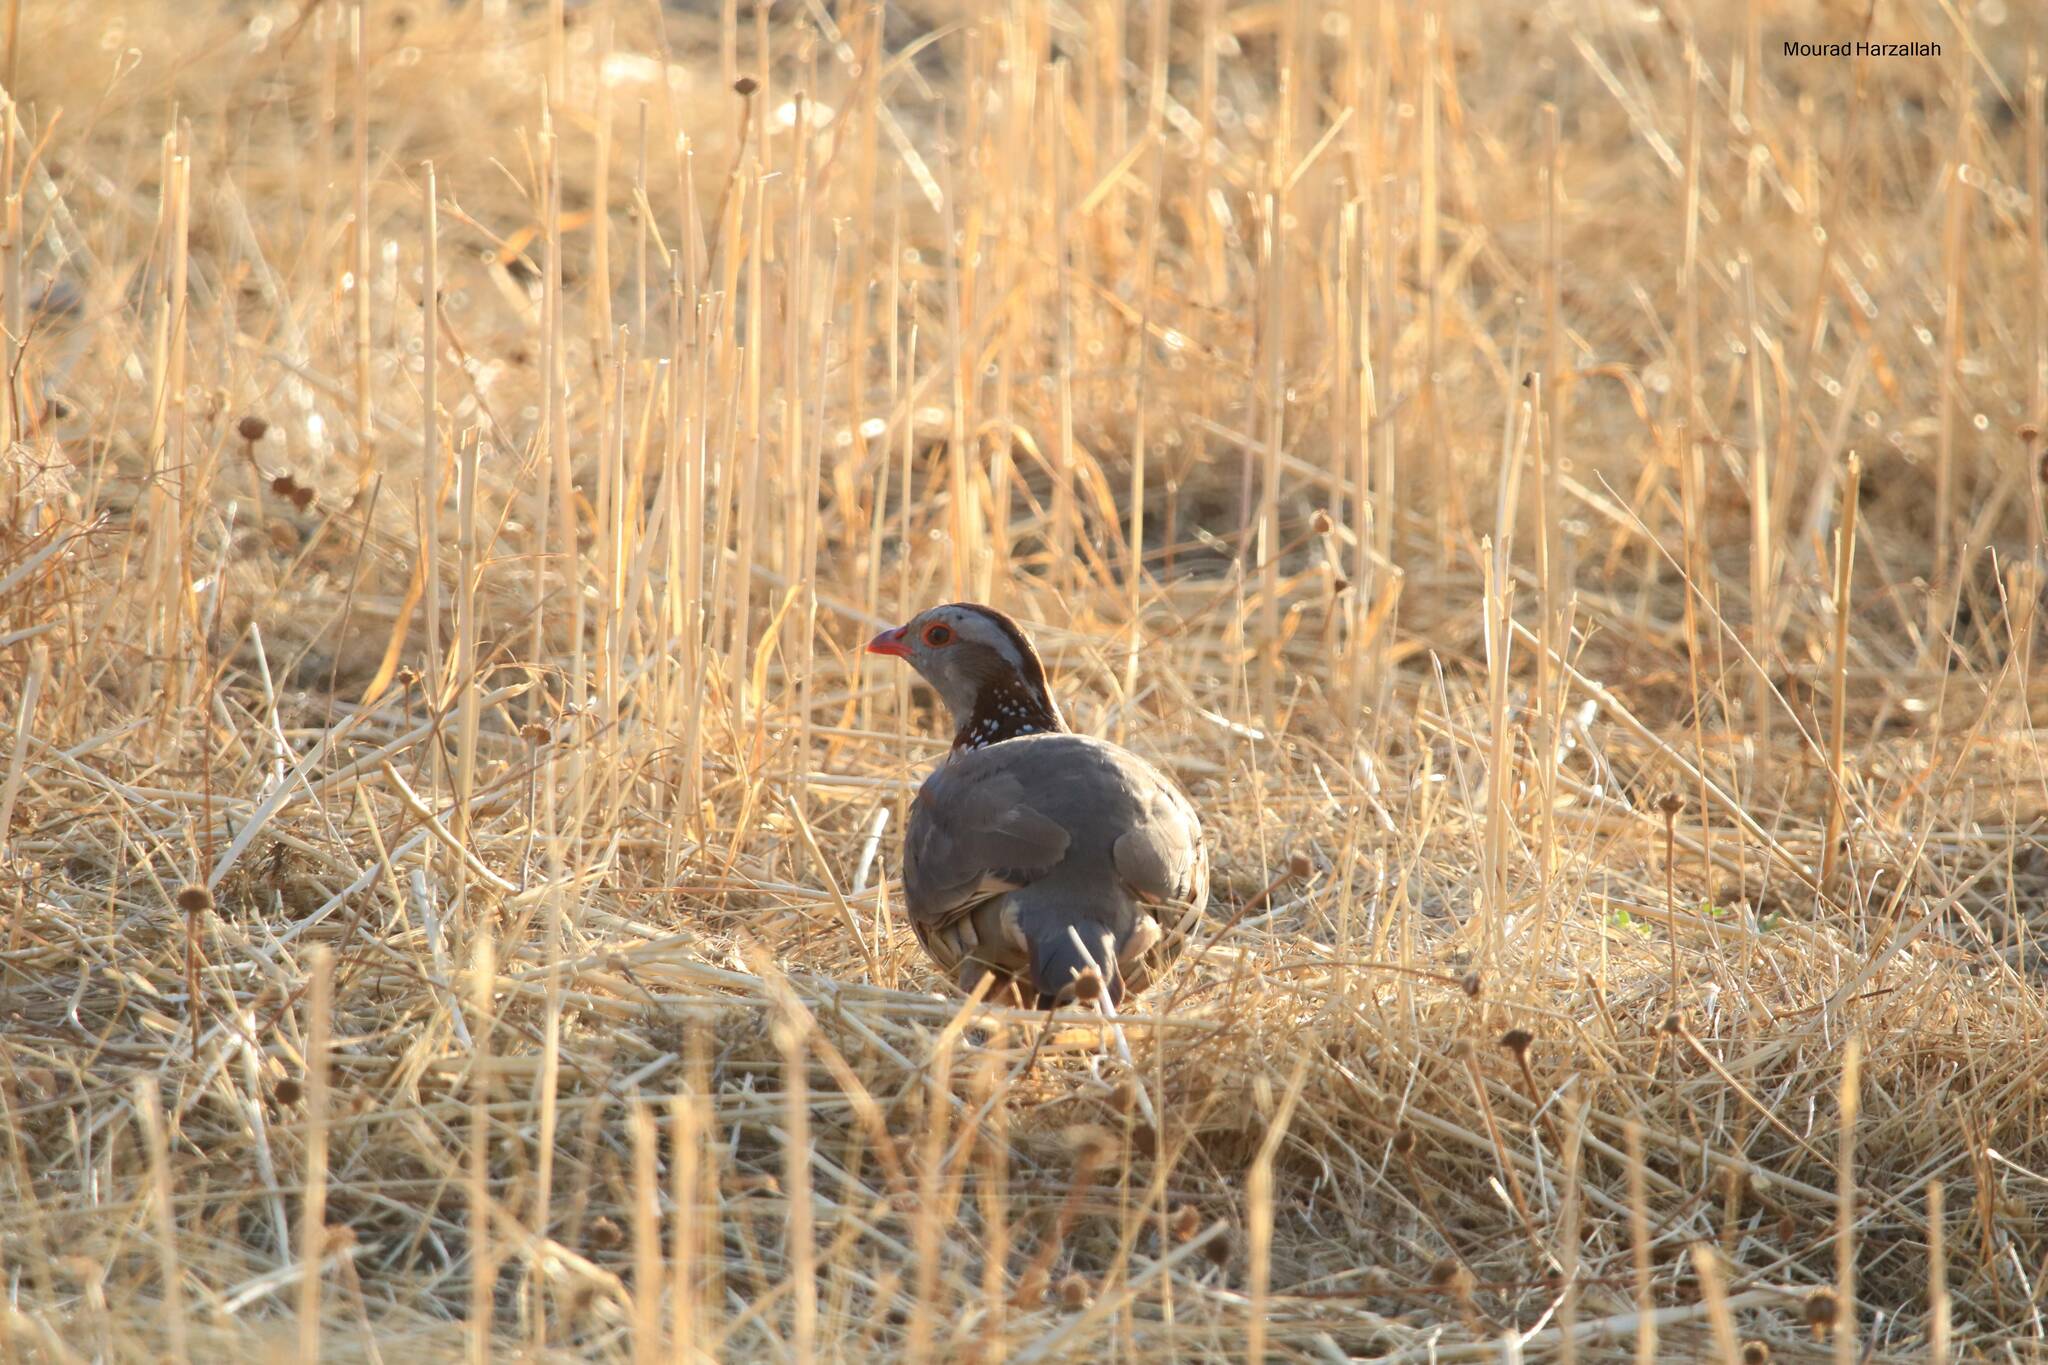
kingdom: Animalia
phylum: Chordata
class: Aves
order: Galliformes
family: Phasianidae
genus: Alectoris
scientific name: Alectoris barbara
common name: Barbary partridge
